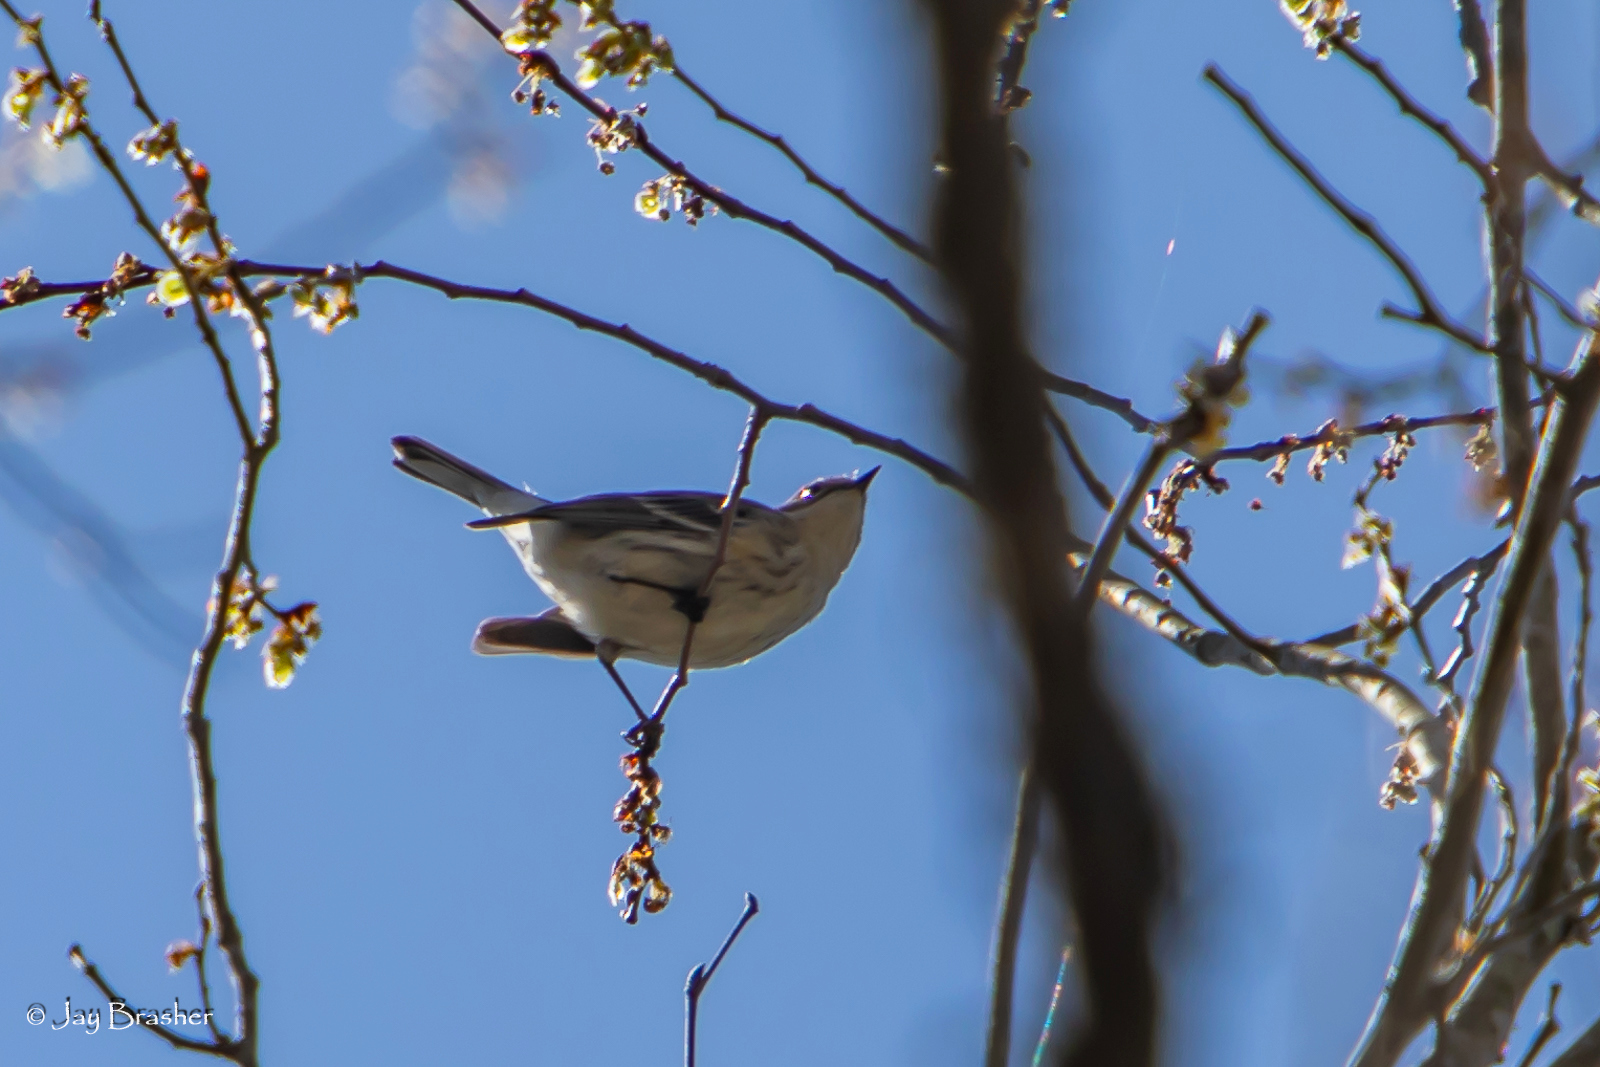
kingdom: Animalia
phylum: Chordata
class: Aves
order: Passeriformes
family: Parulidae
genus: Setophaga
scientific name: Setophaga coronata
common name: Myrtle warbler
